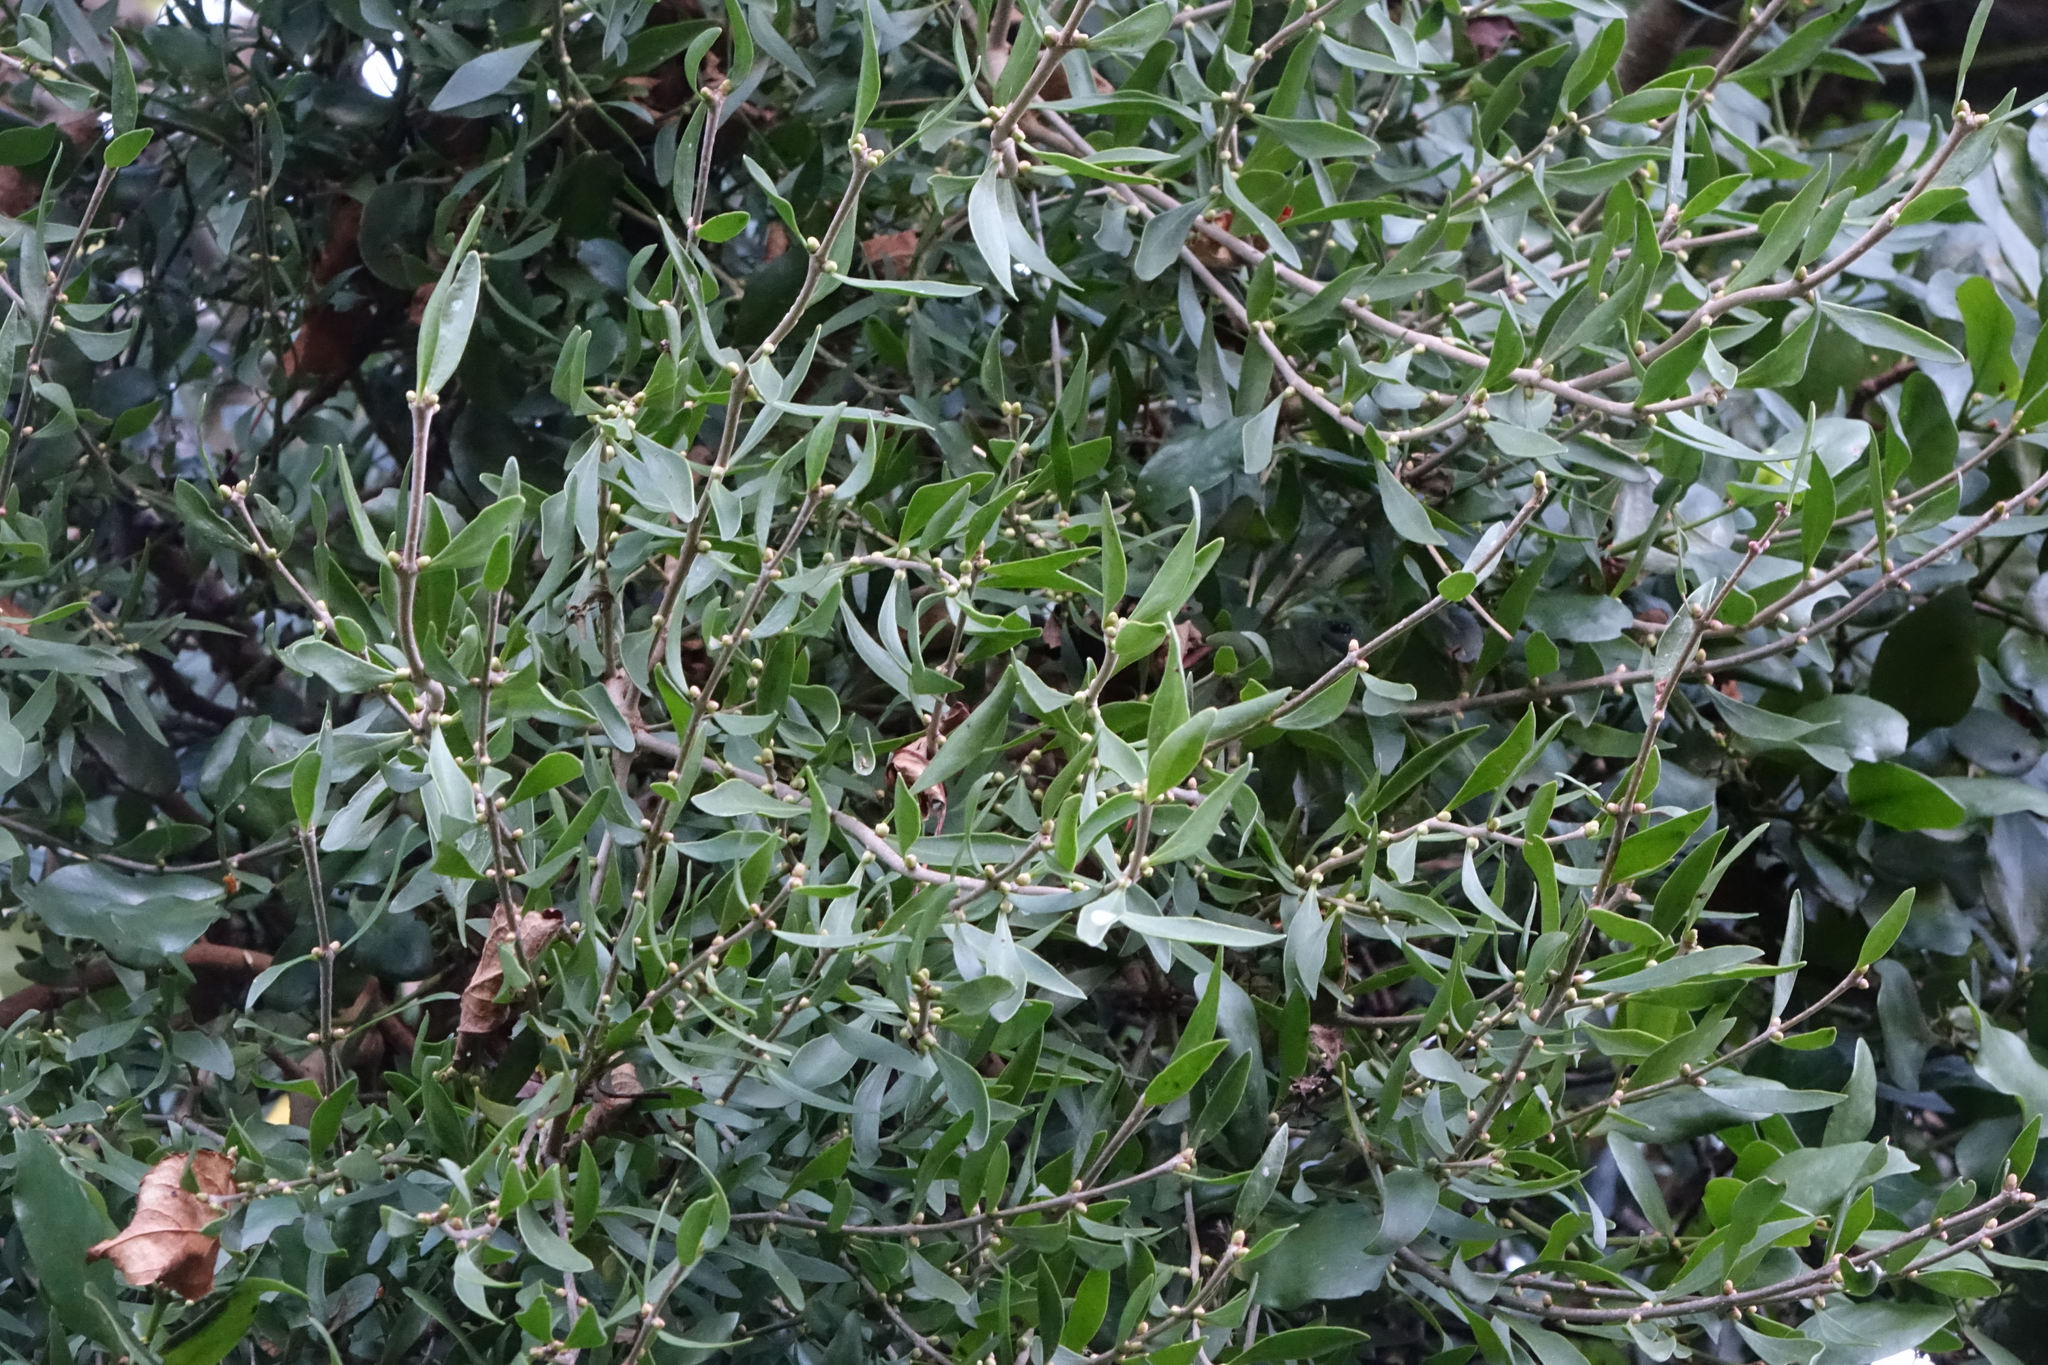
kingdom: Plantae
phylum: Tracheophyta
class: Magnoliopsida
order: Santalales
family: Loranthaceae
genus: Tupeia
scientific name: Tupeia antarctica
